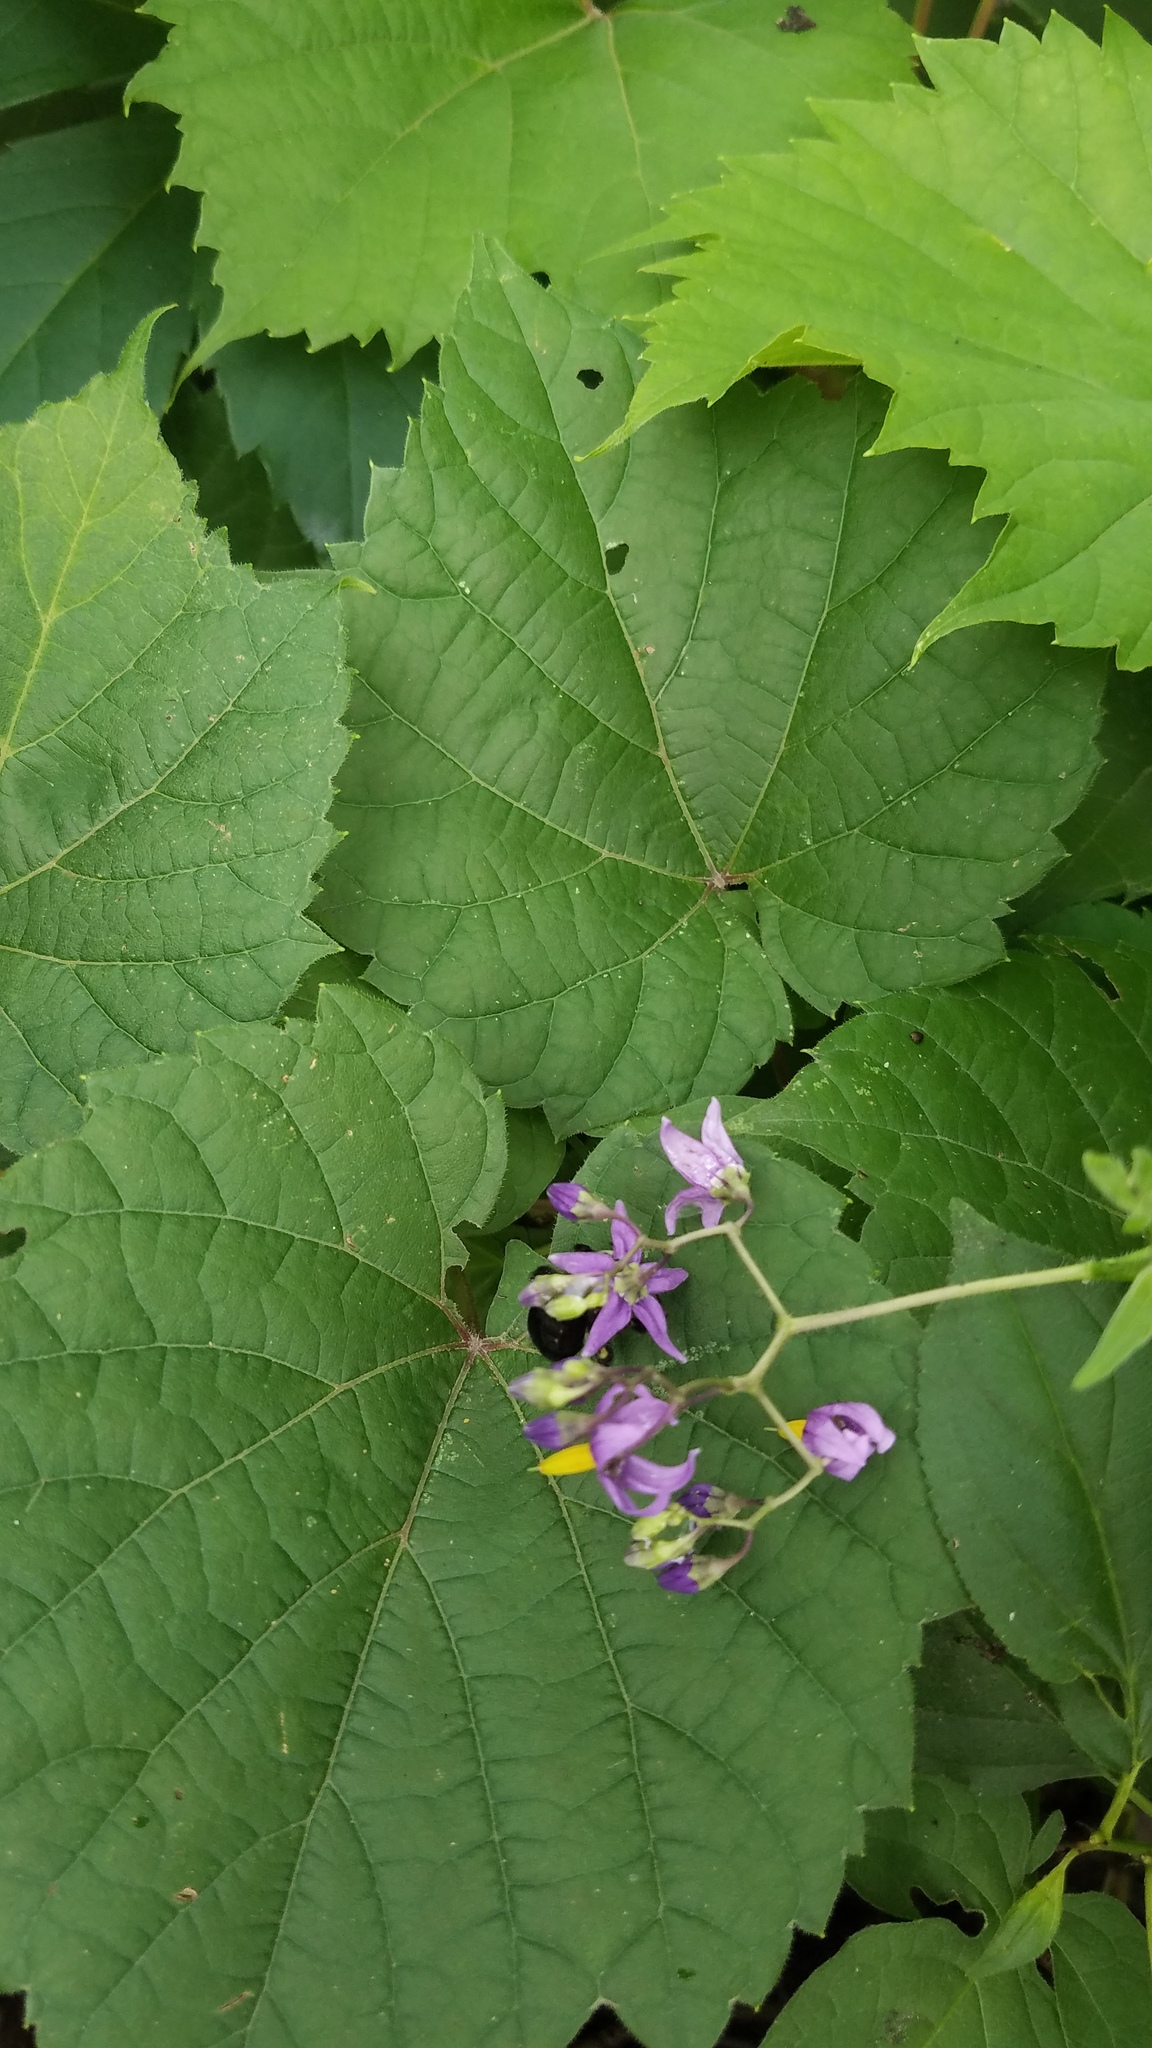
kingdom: Plantae
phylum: Tracheophyta
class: Magnoliopsida
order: Solanales
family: Solanaceae
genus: Solanum
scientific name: Solanum dulcamara
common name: Climbing nightshade
